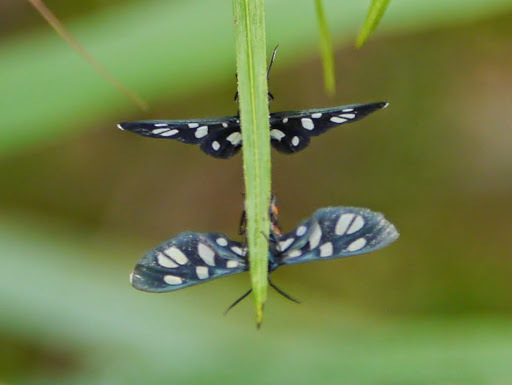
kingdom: Animalia
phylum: Arthropoda
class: Insecta
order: Lepidoptera
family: Erebidae
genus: Amata
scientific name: Amata alicia
